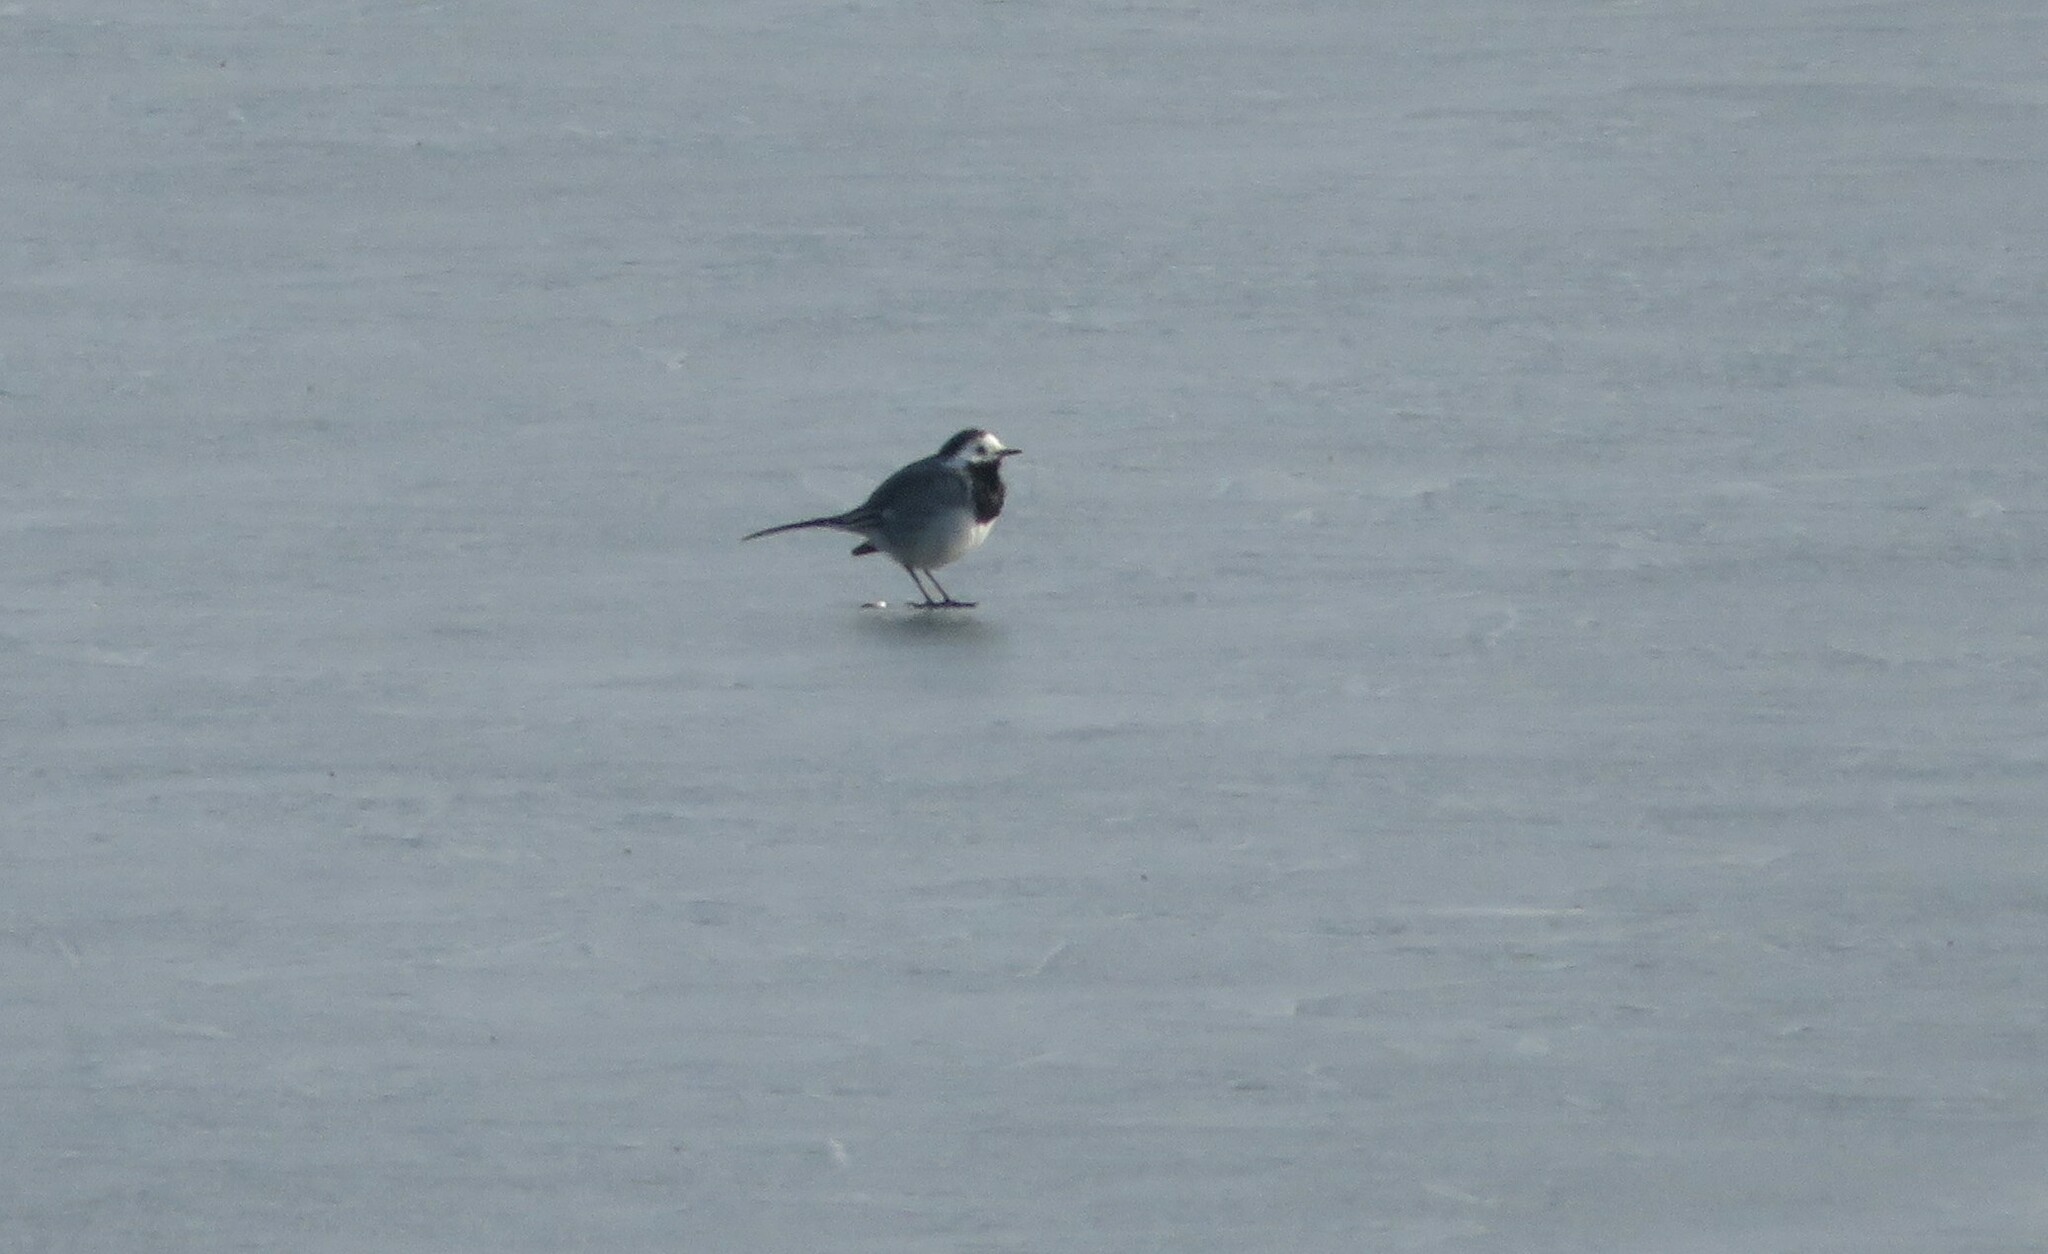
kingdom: Animalia
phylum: Chordata
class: Aves
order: Passeriformes
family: Motacillidae
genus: Motacilla
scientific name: Motacilla alba
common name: White wagtail
